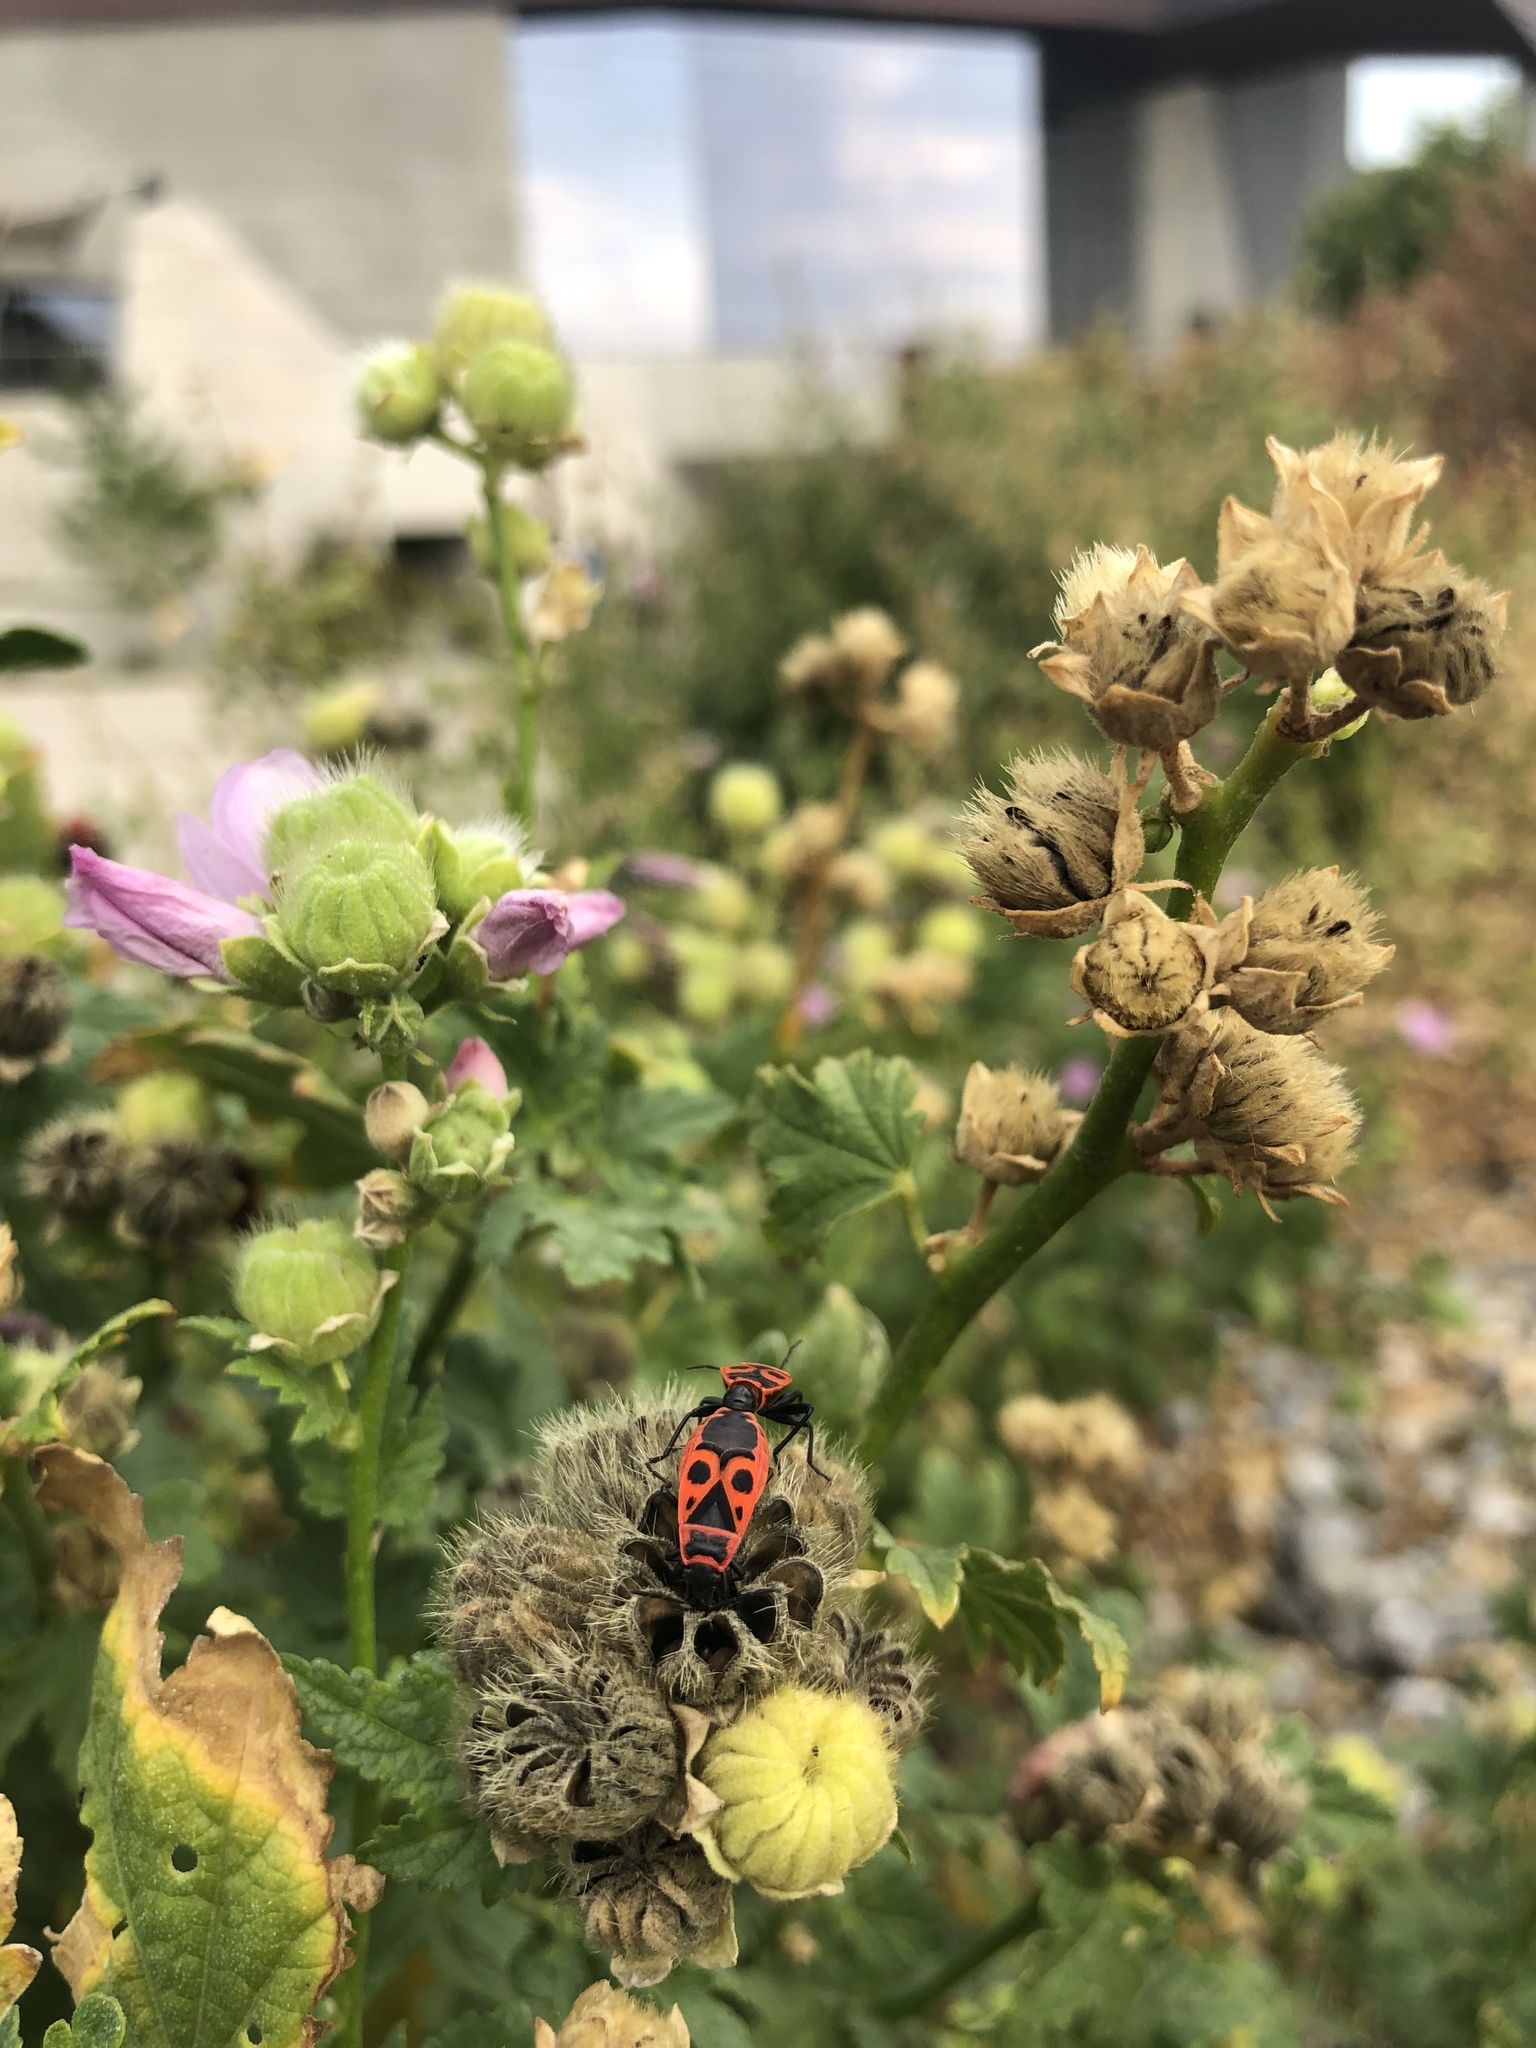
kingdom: Animalia
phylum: Arthropoda
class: Insecta
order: Hemiptera
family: Pyrrhocoridae
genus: Pyrrhocoris
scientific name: Pyrrhocoris apterus
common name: Firebug
